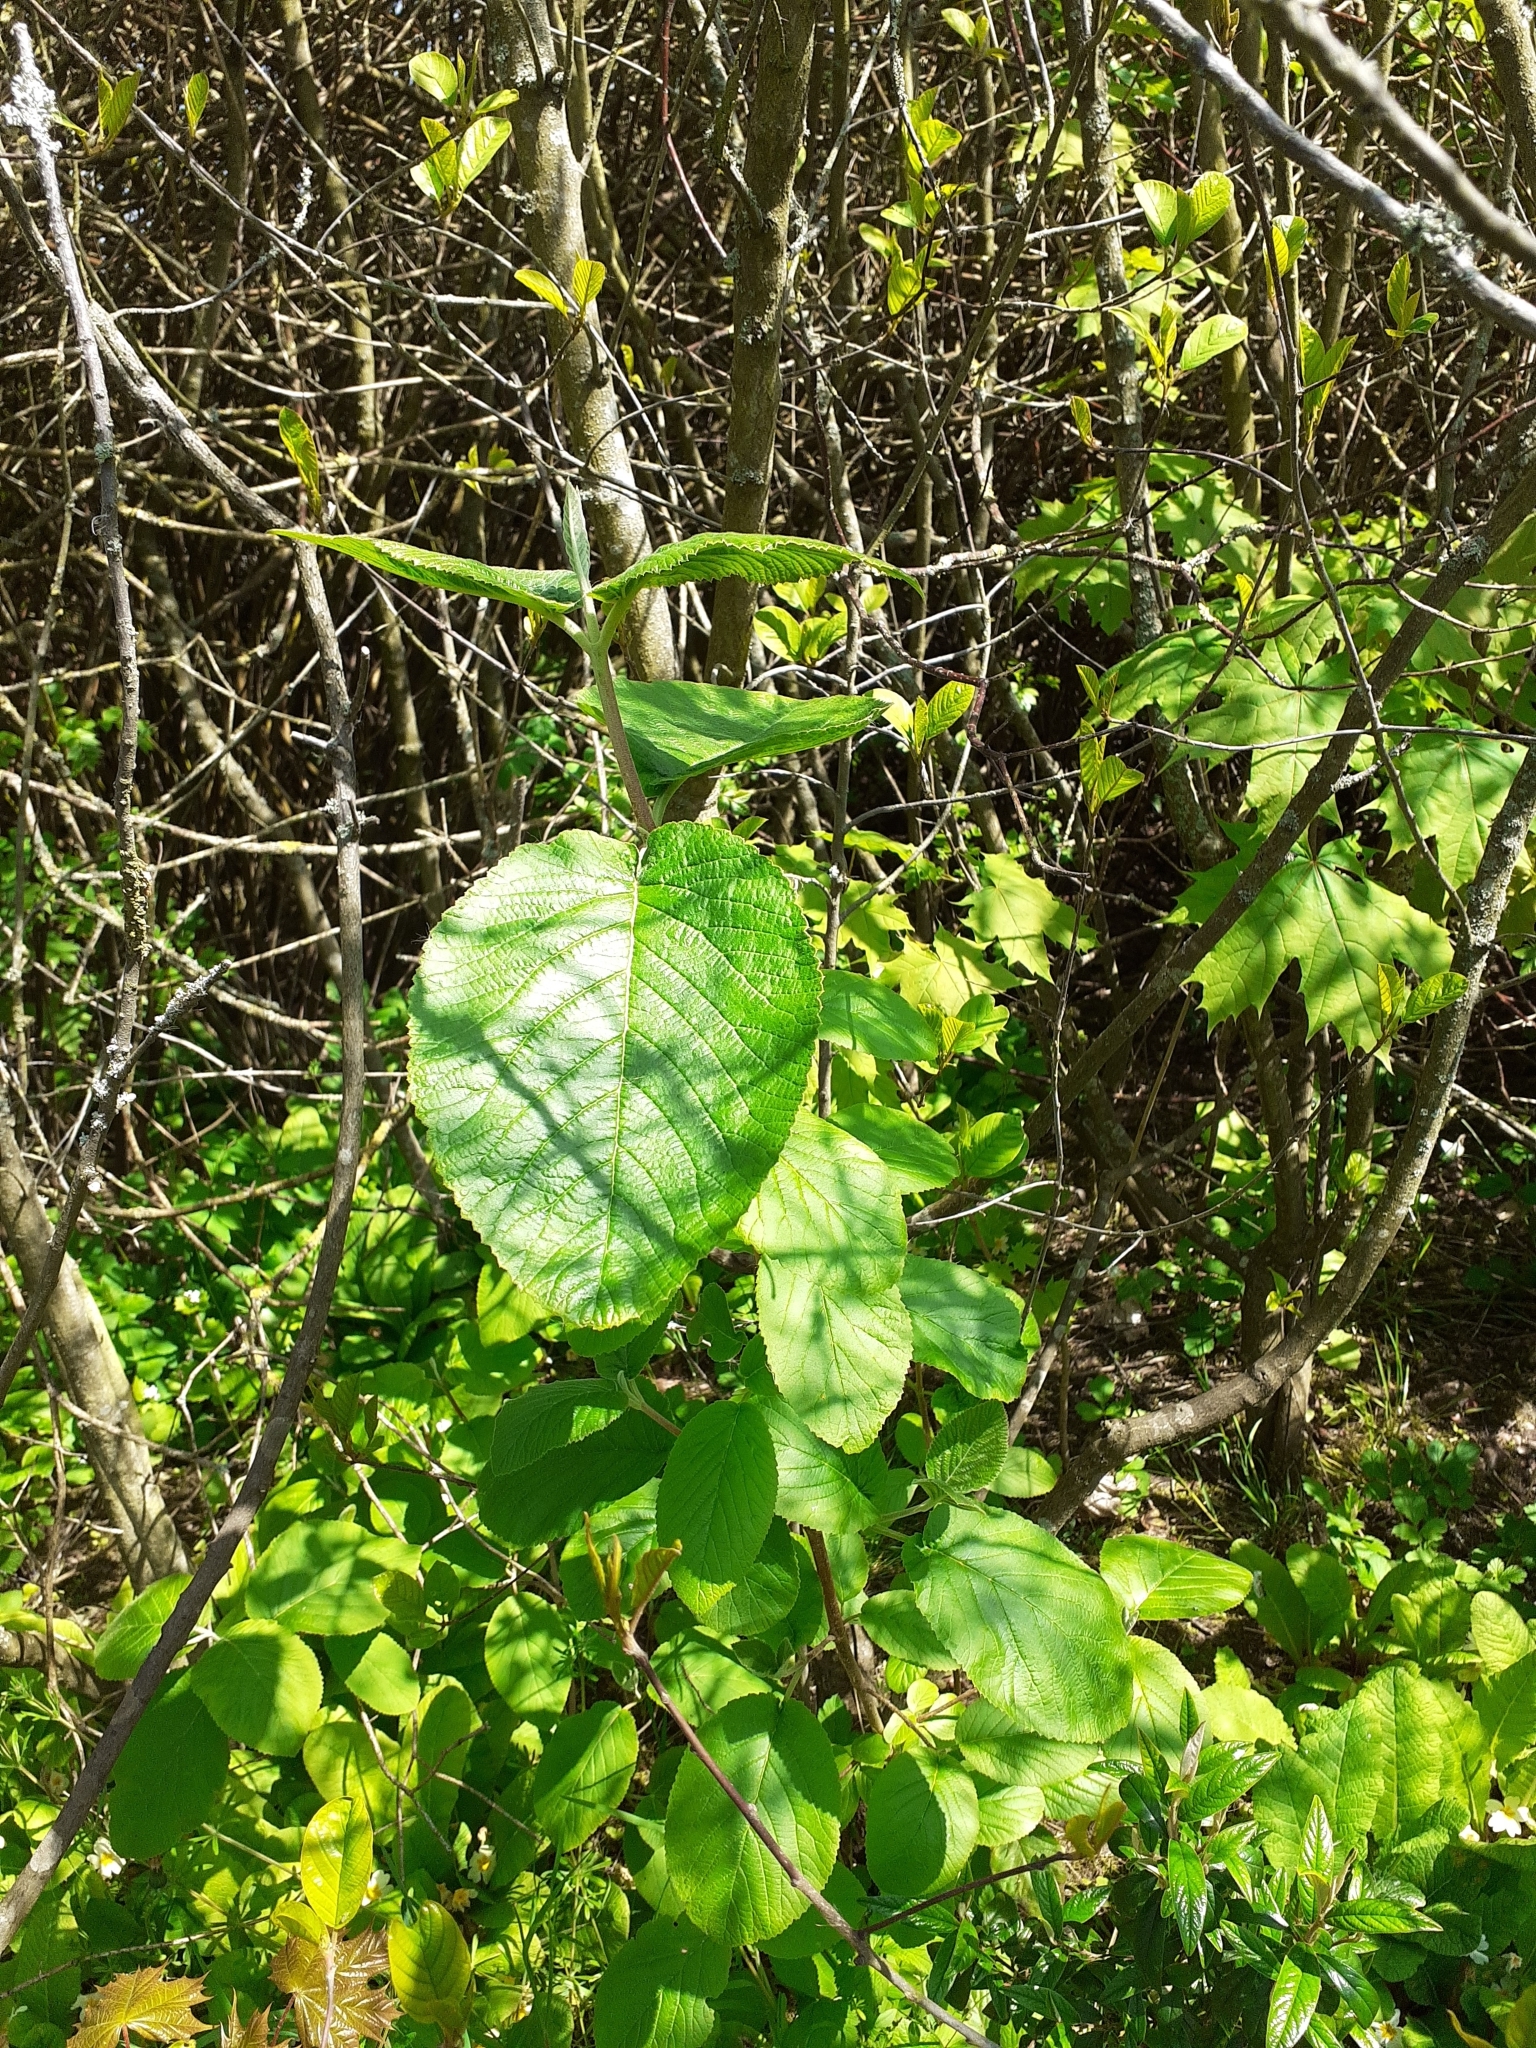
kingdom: Plantae
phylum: Tracheophyta
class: Magnoliopsida
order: Dipsacales
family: Viburnaceae
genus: Viburnum
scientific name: Viburnum lantana
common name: Wayfaring tree
